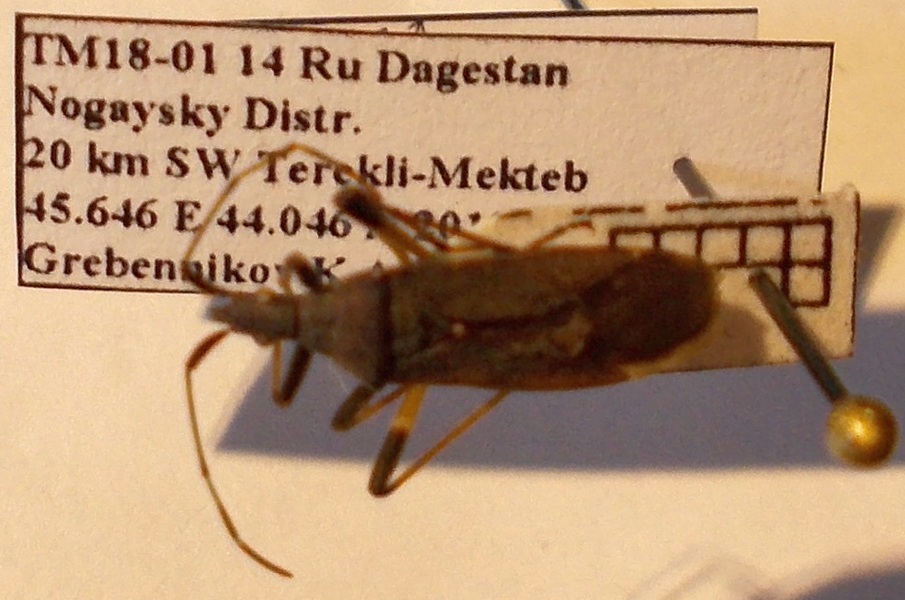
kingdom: Animalia
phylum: Arthropoda
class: Insecta
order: Hemiptera
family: Stenocephalidae
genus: Dicranocephalus
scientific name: Dicranocephalus albipes
